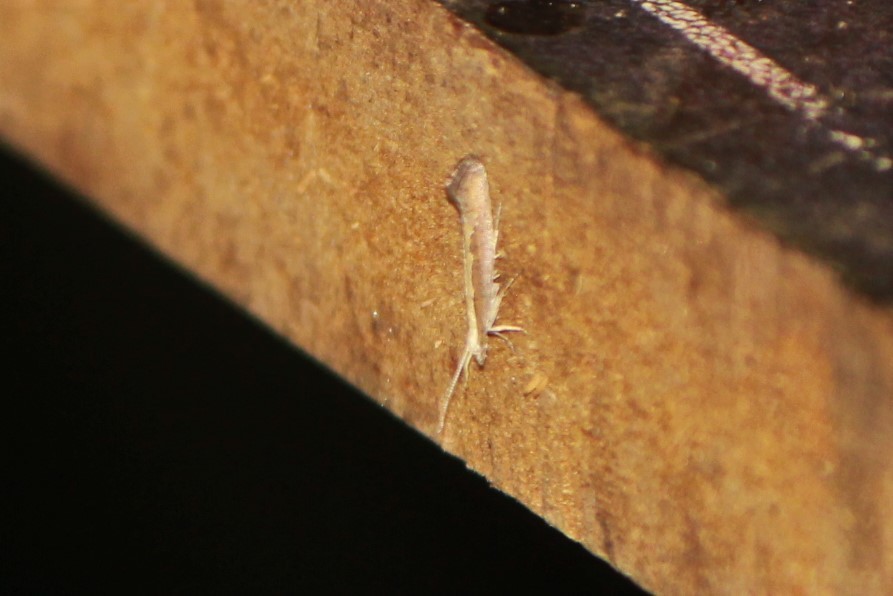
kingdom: Animalia
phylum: Arthropoda
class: Insecta
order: Lepidoptera
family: Plutellidae
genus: Plutella
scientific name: Plutella xylostella
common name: Diamond-back moth
